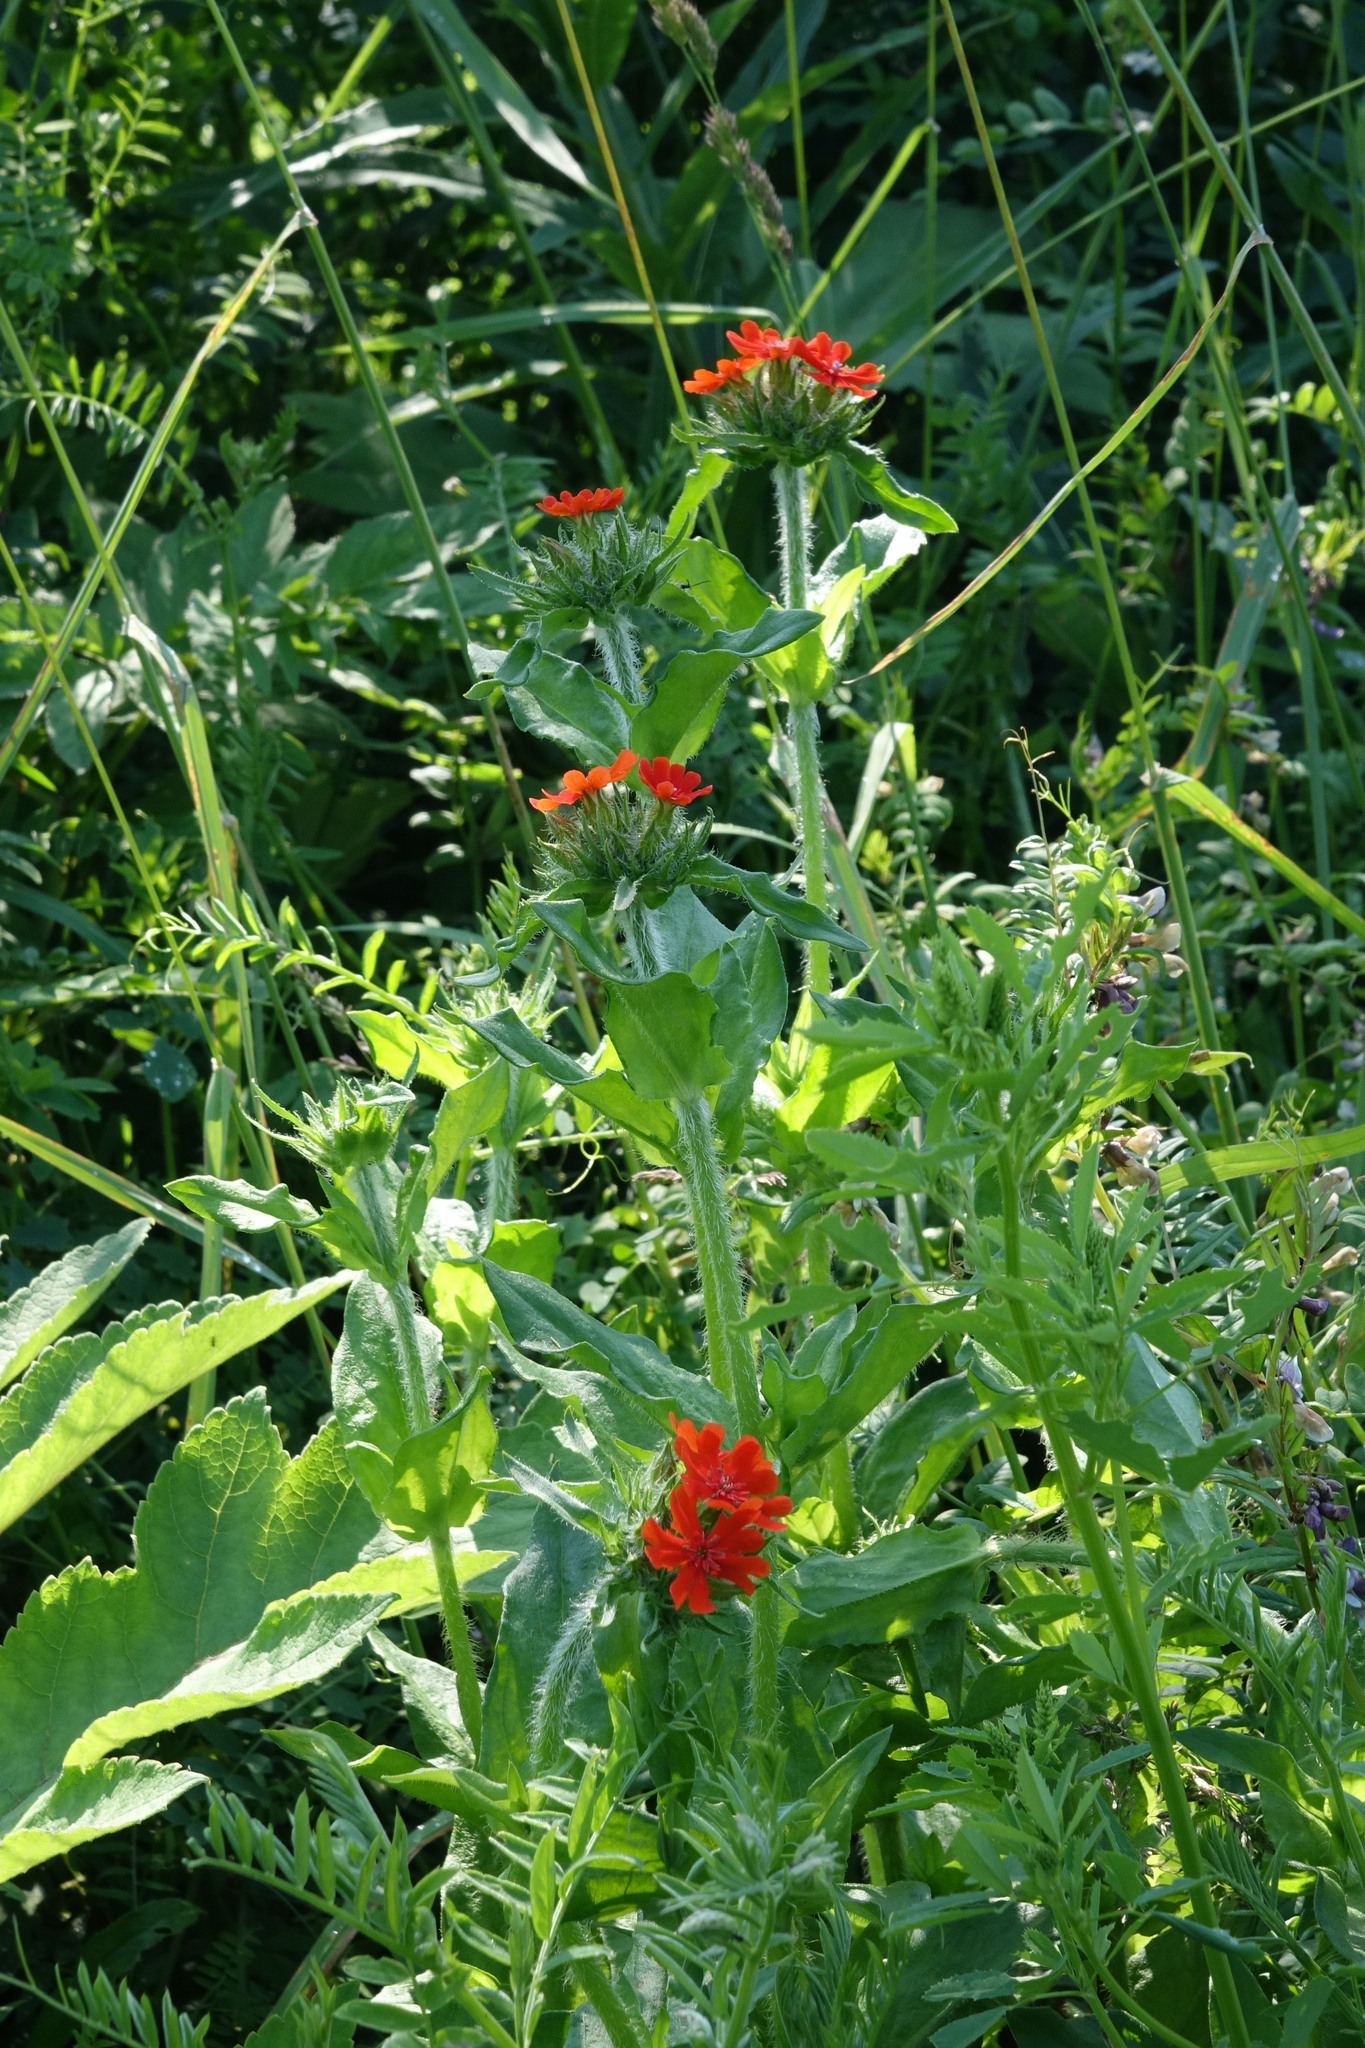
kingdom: Plantae
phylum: Tracheophyta
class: Magnoliopsida
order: Caryophyllales
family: Caryophyllaceae
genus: Silene
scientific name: Silene chalcedonica
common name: Maltese-cross
